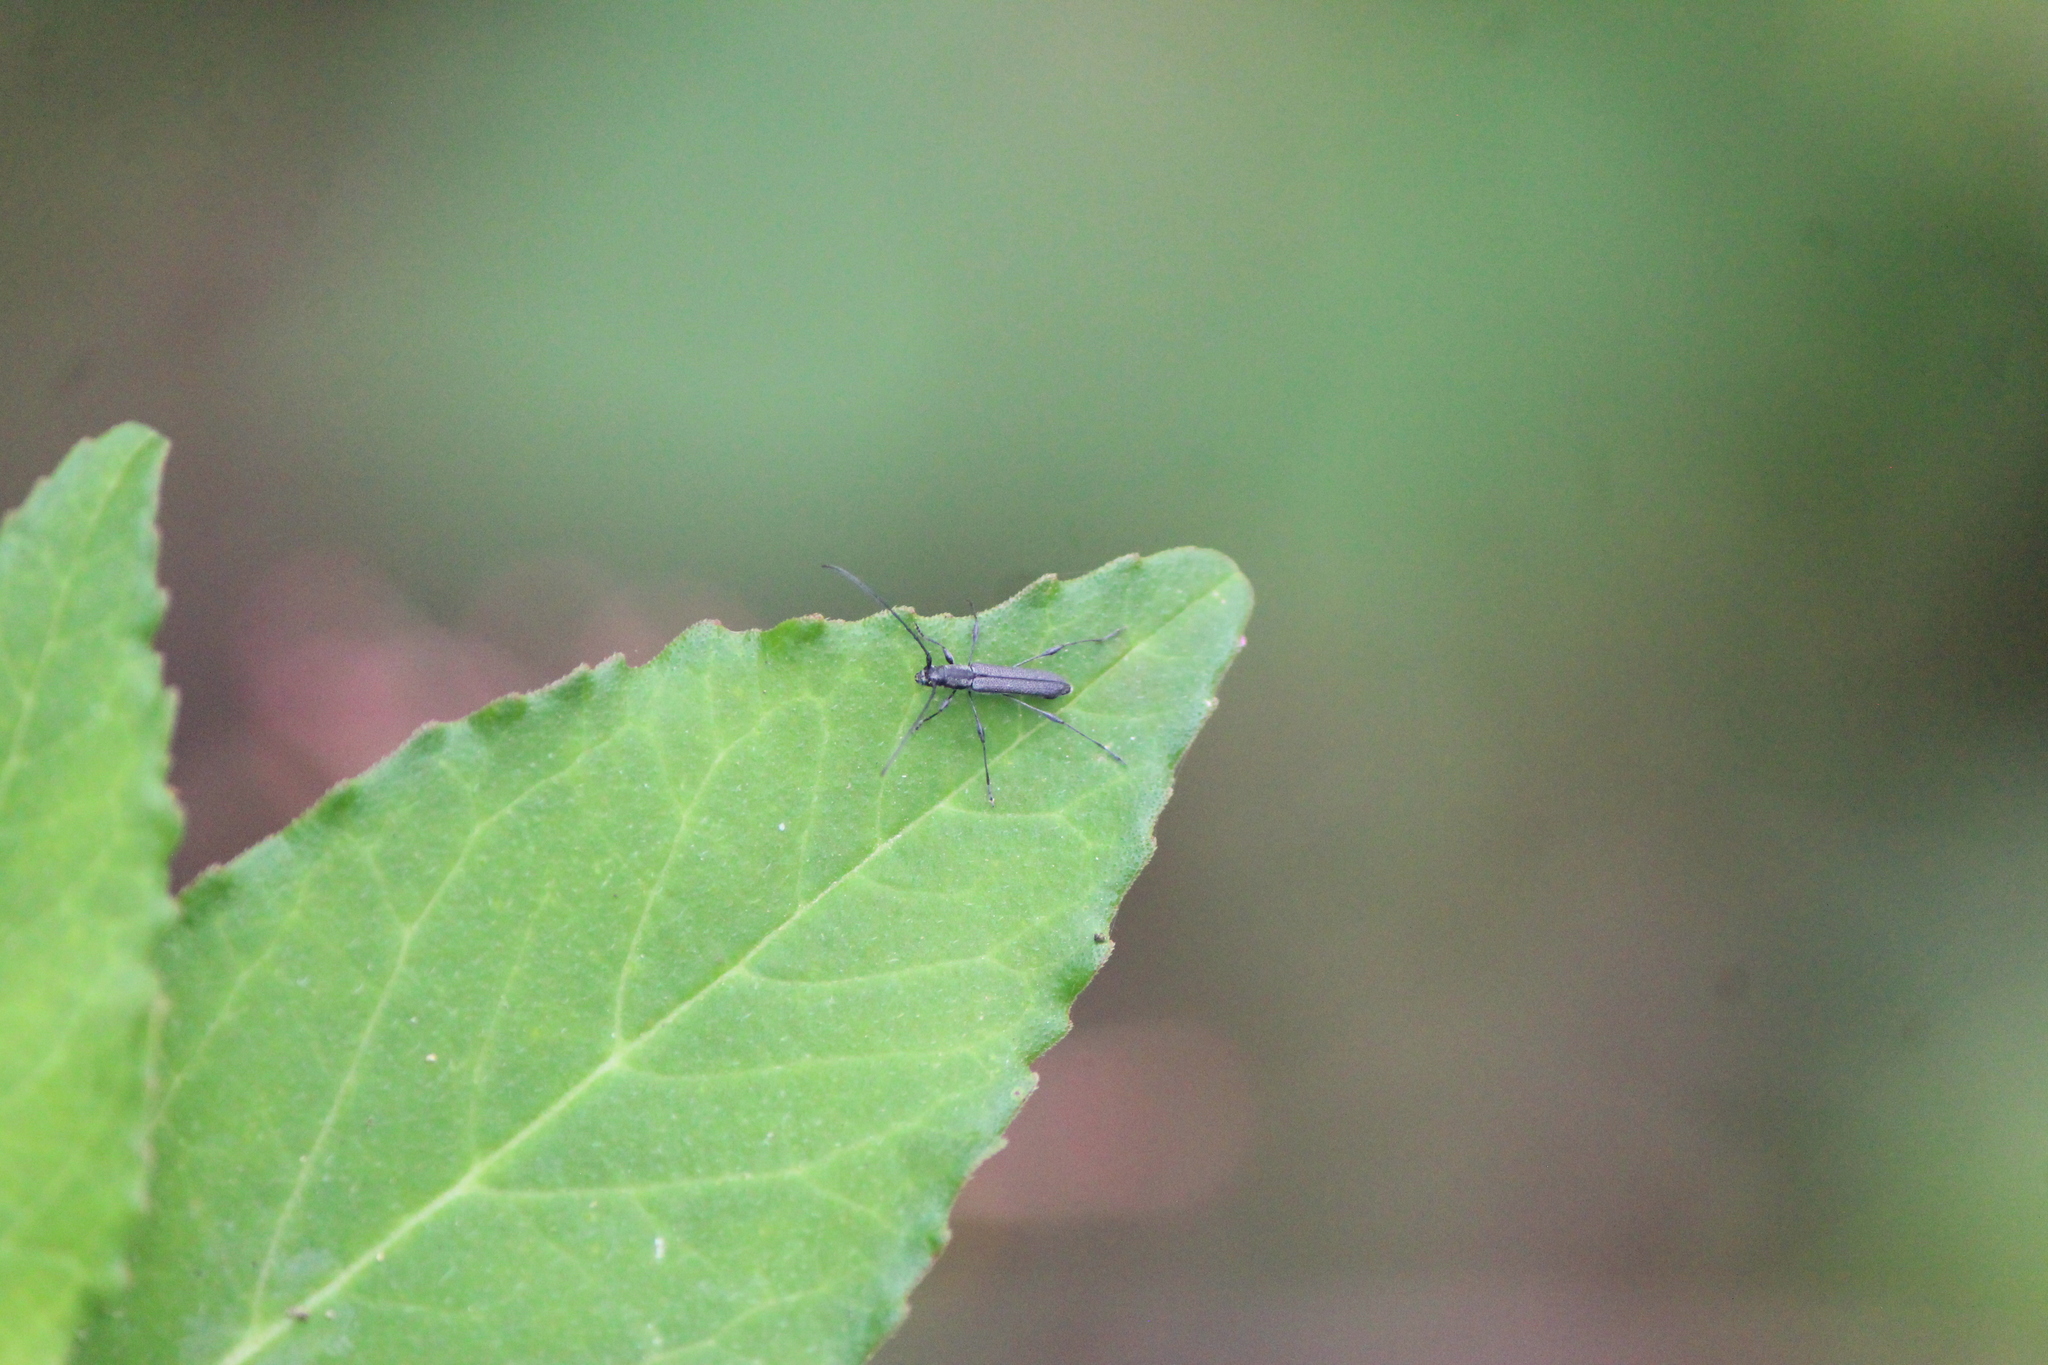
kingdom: Animalia
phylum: Arthropoda
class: Insecta
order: Coleoptera
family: Cerambycidae
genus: Rhopalophora
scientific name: Rhopalophora tenuis
